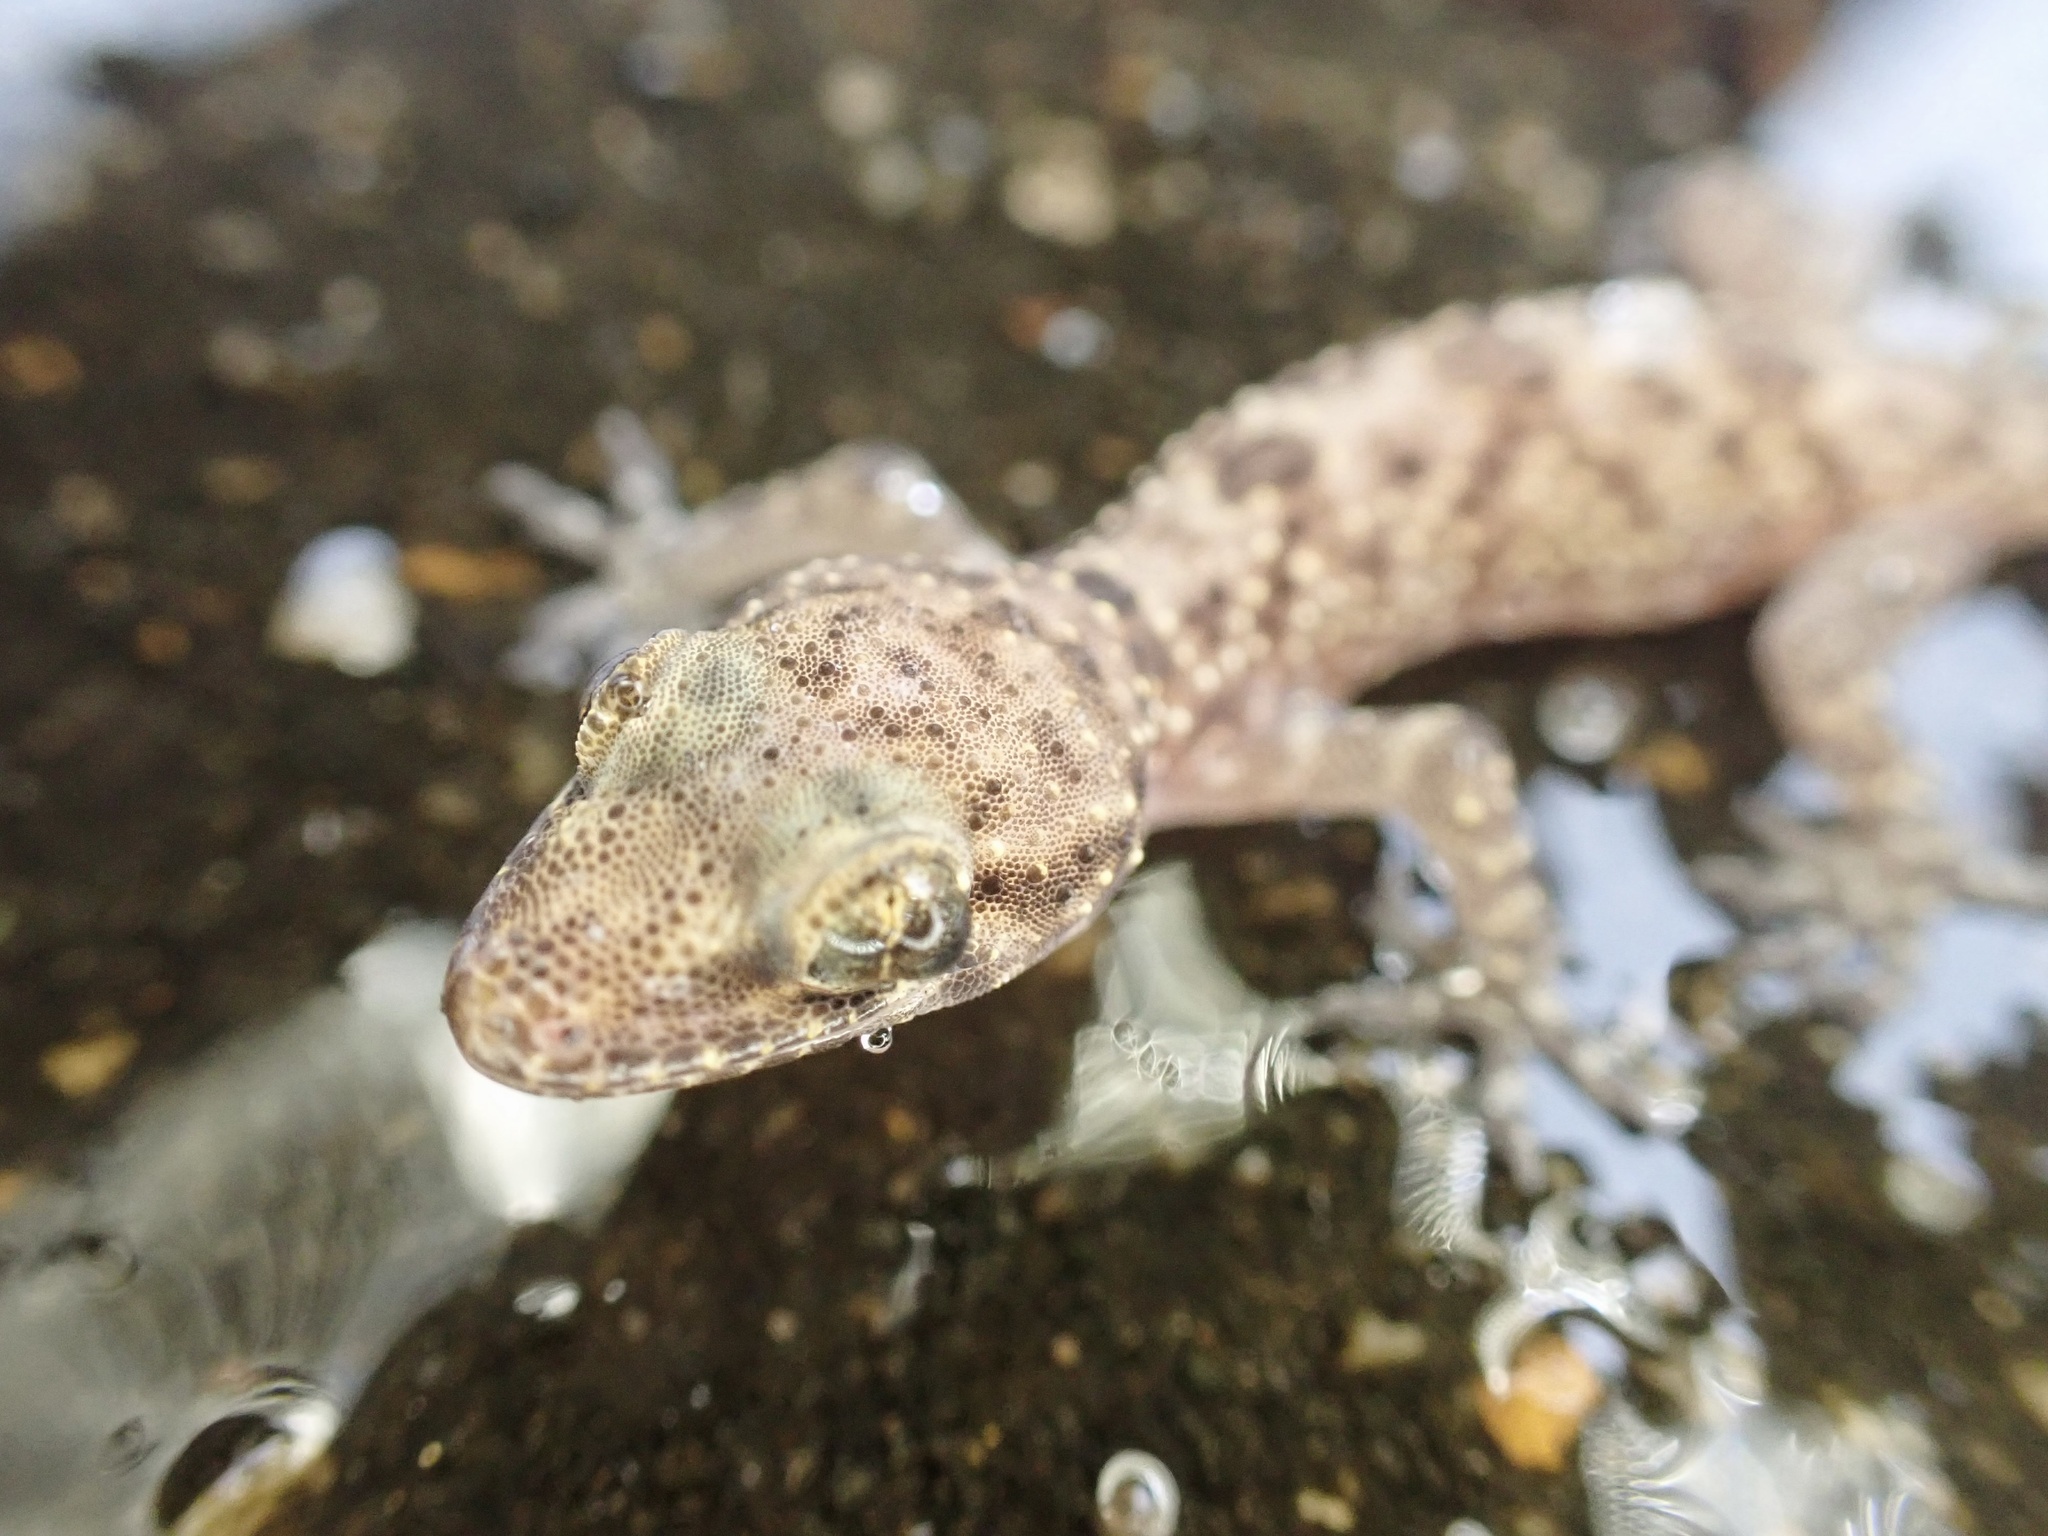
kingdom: Animalia
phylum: Chordata
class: Squamata
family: Gekkonidae
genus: Hemidactylus
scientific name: Hemidactylus turcicus
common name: Turkish gecko
